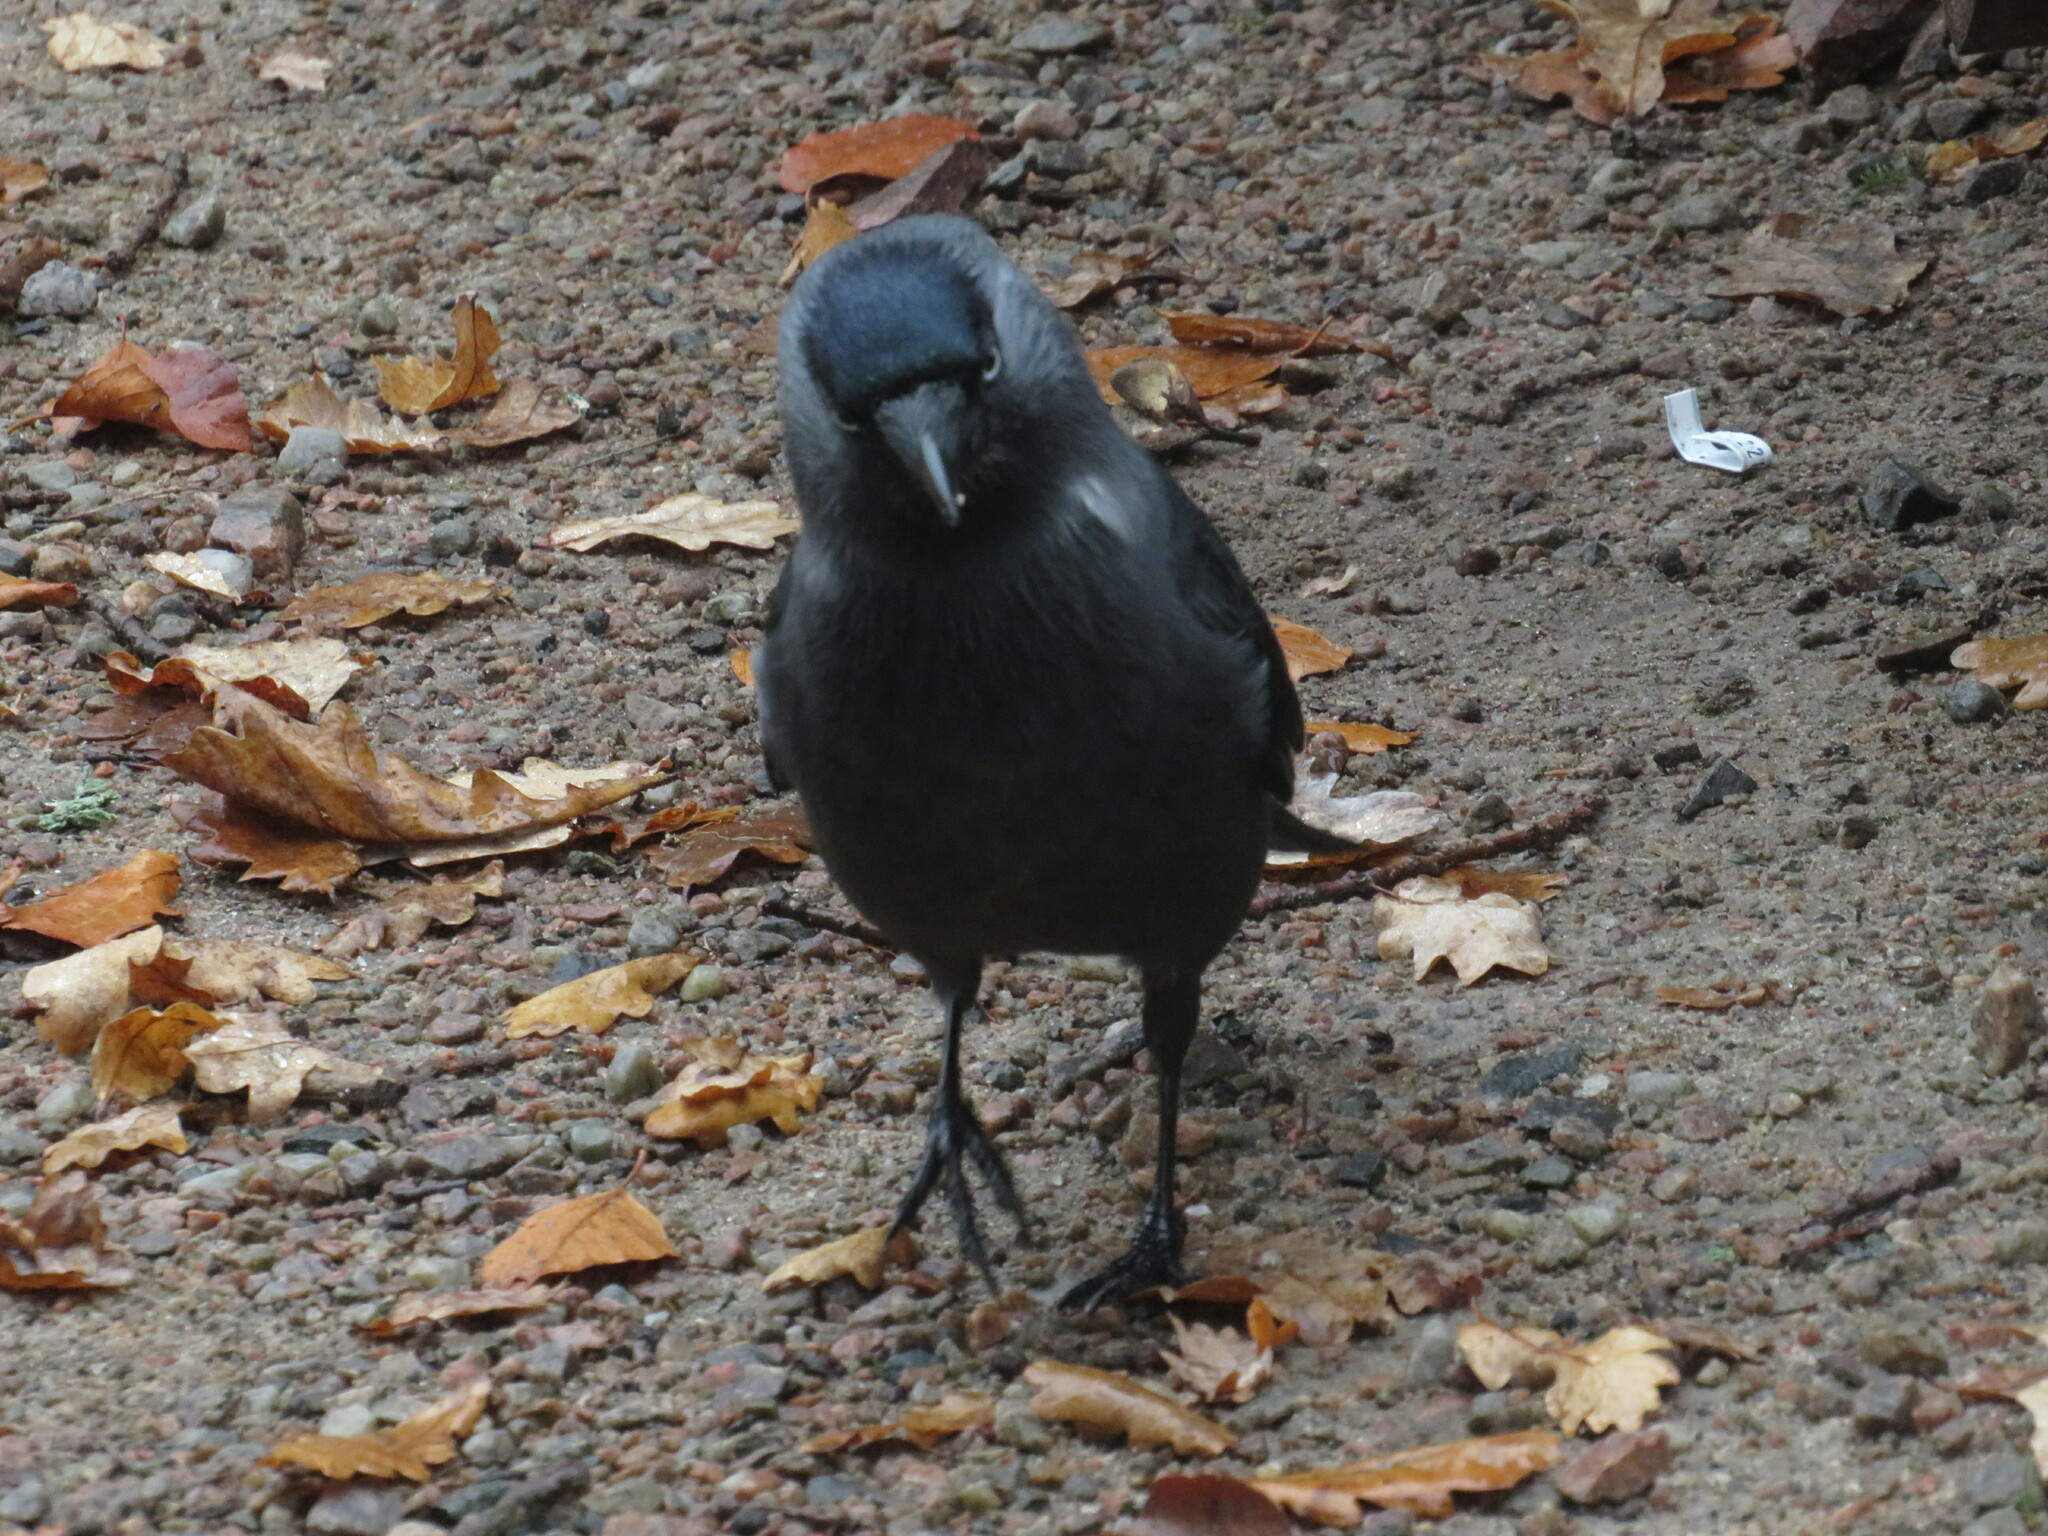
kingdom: Animalia
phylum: Chordata
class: Aves
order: Passeriformes
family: Corvidae
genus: Coloeus
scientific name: Coloeus monedula
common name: Western jackdaw
